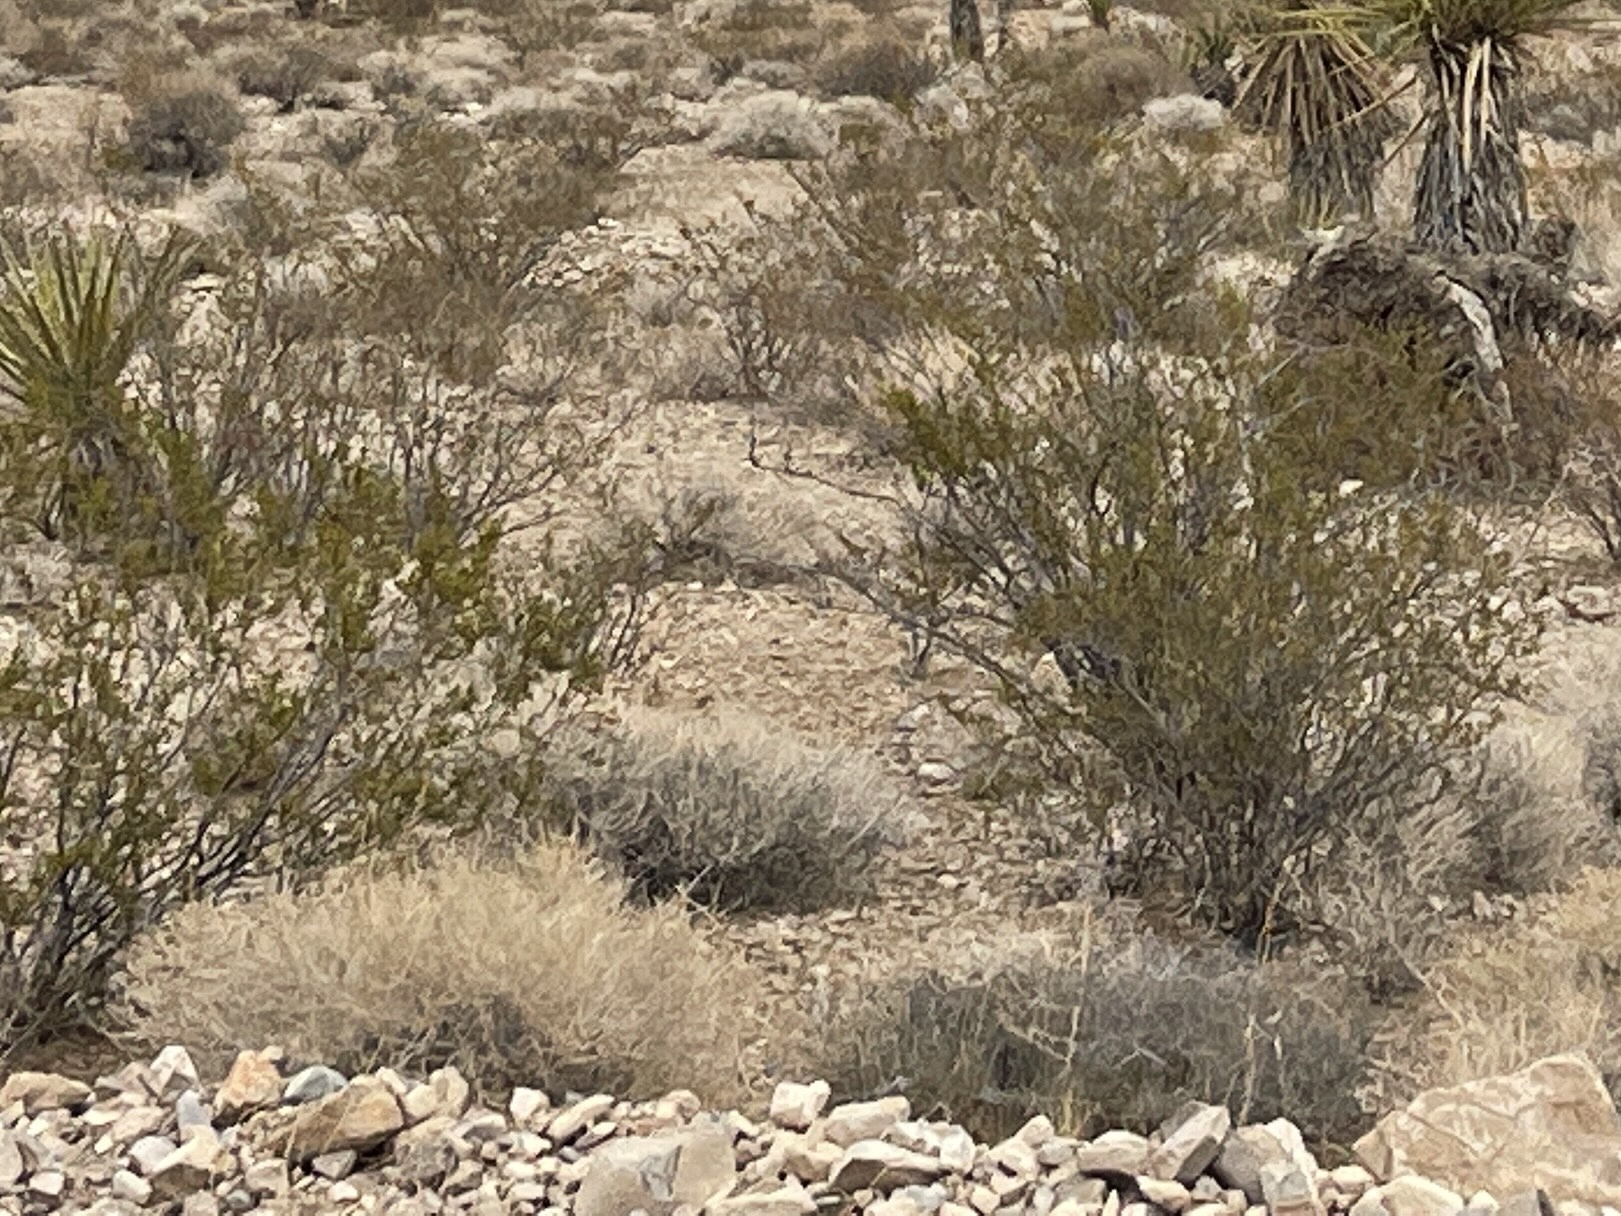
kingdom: Plantae
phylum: Tracheophyta
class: Magnoliopsida
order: Zygophyllales
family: Zygophyllaceae
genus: Larrea
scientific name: Larrea tridentata
